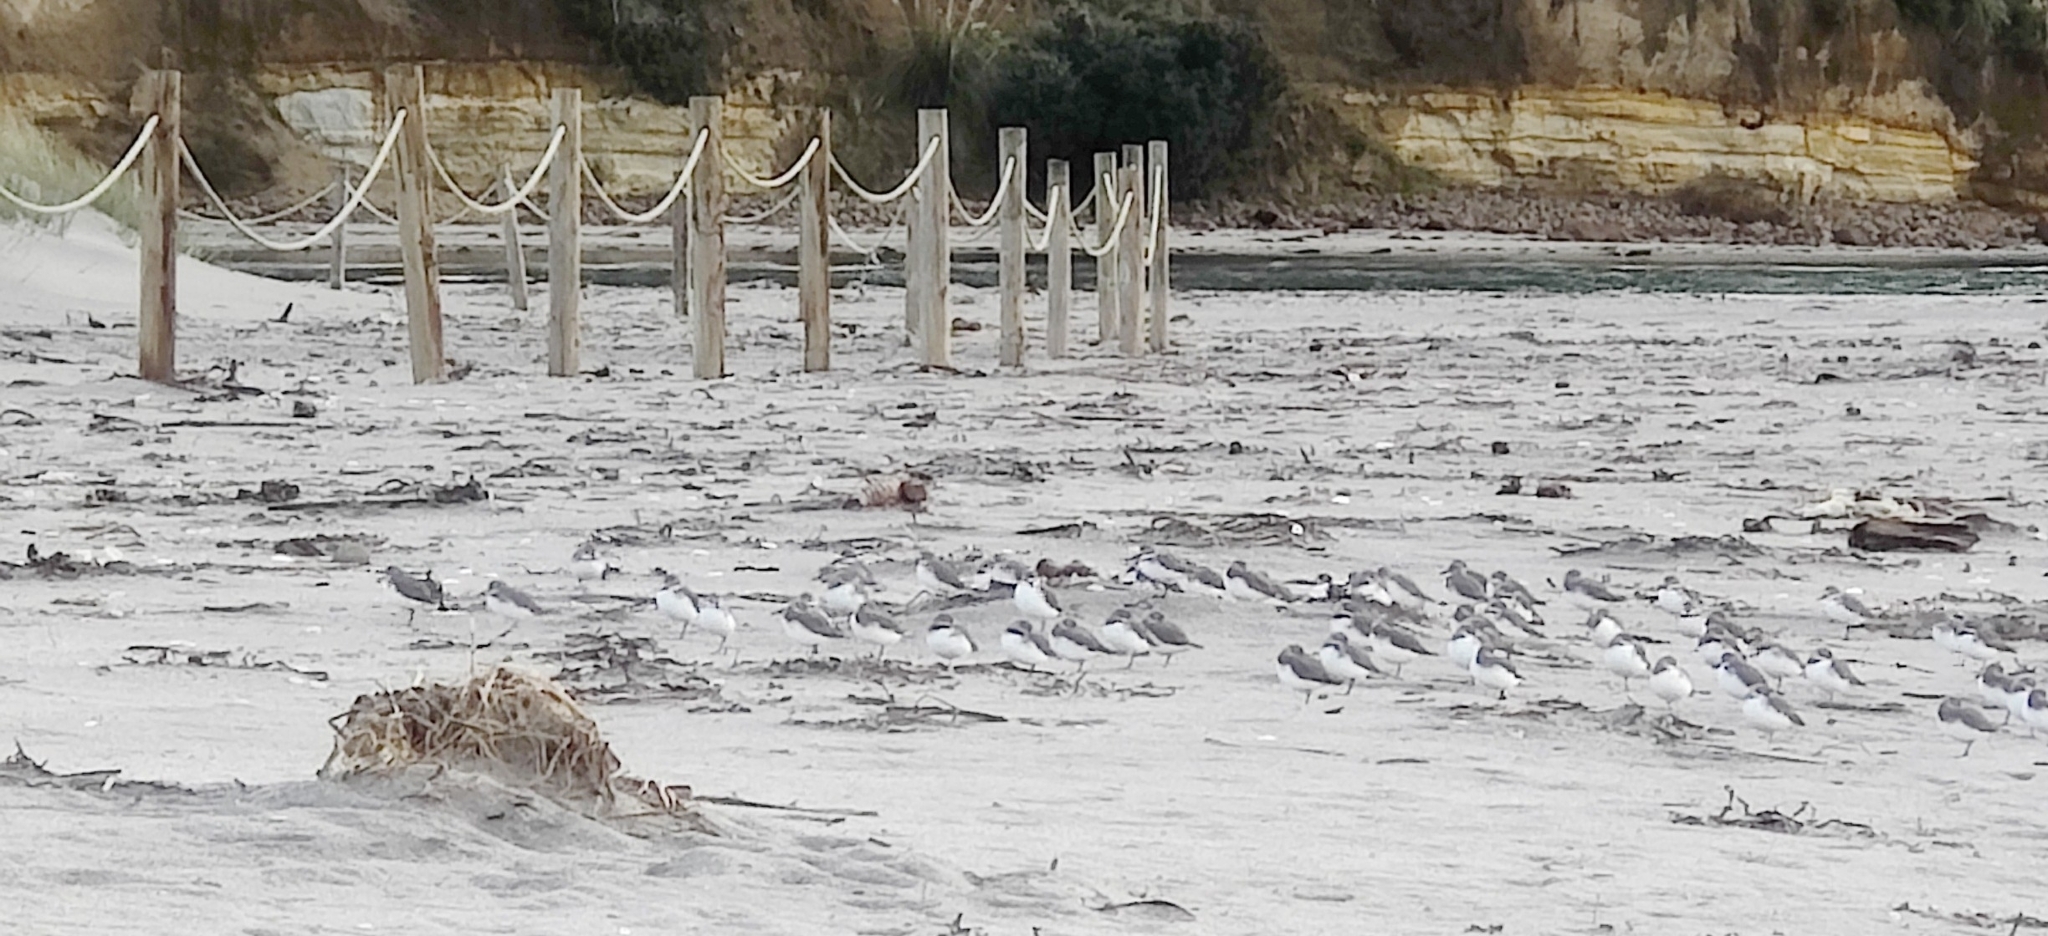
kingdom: Animalia
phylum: Chordata
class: Aves
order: Charadriiformes
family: Charadriidae
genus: Anarhynchus
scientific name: Anarhynchus frontalis
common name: Wrybill
